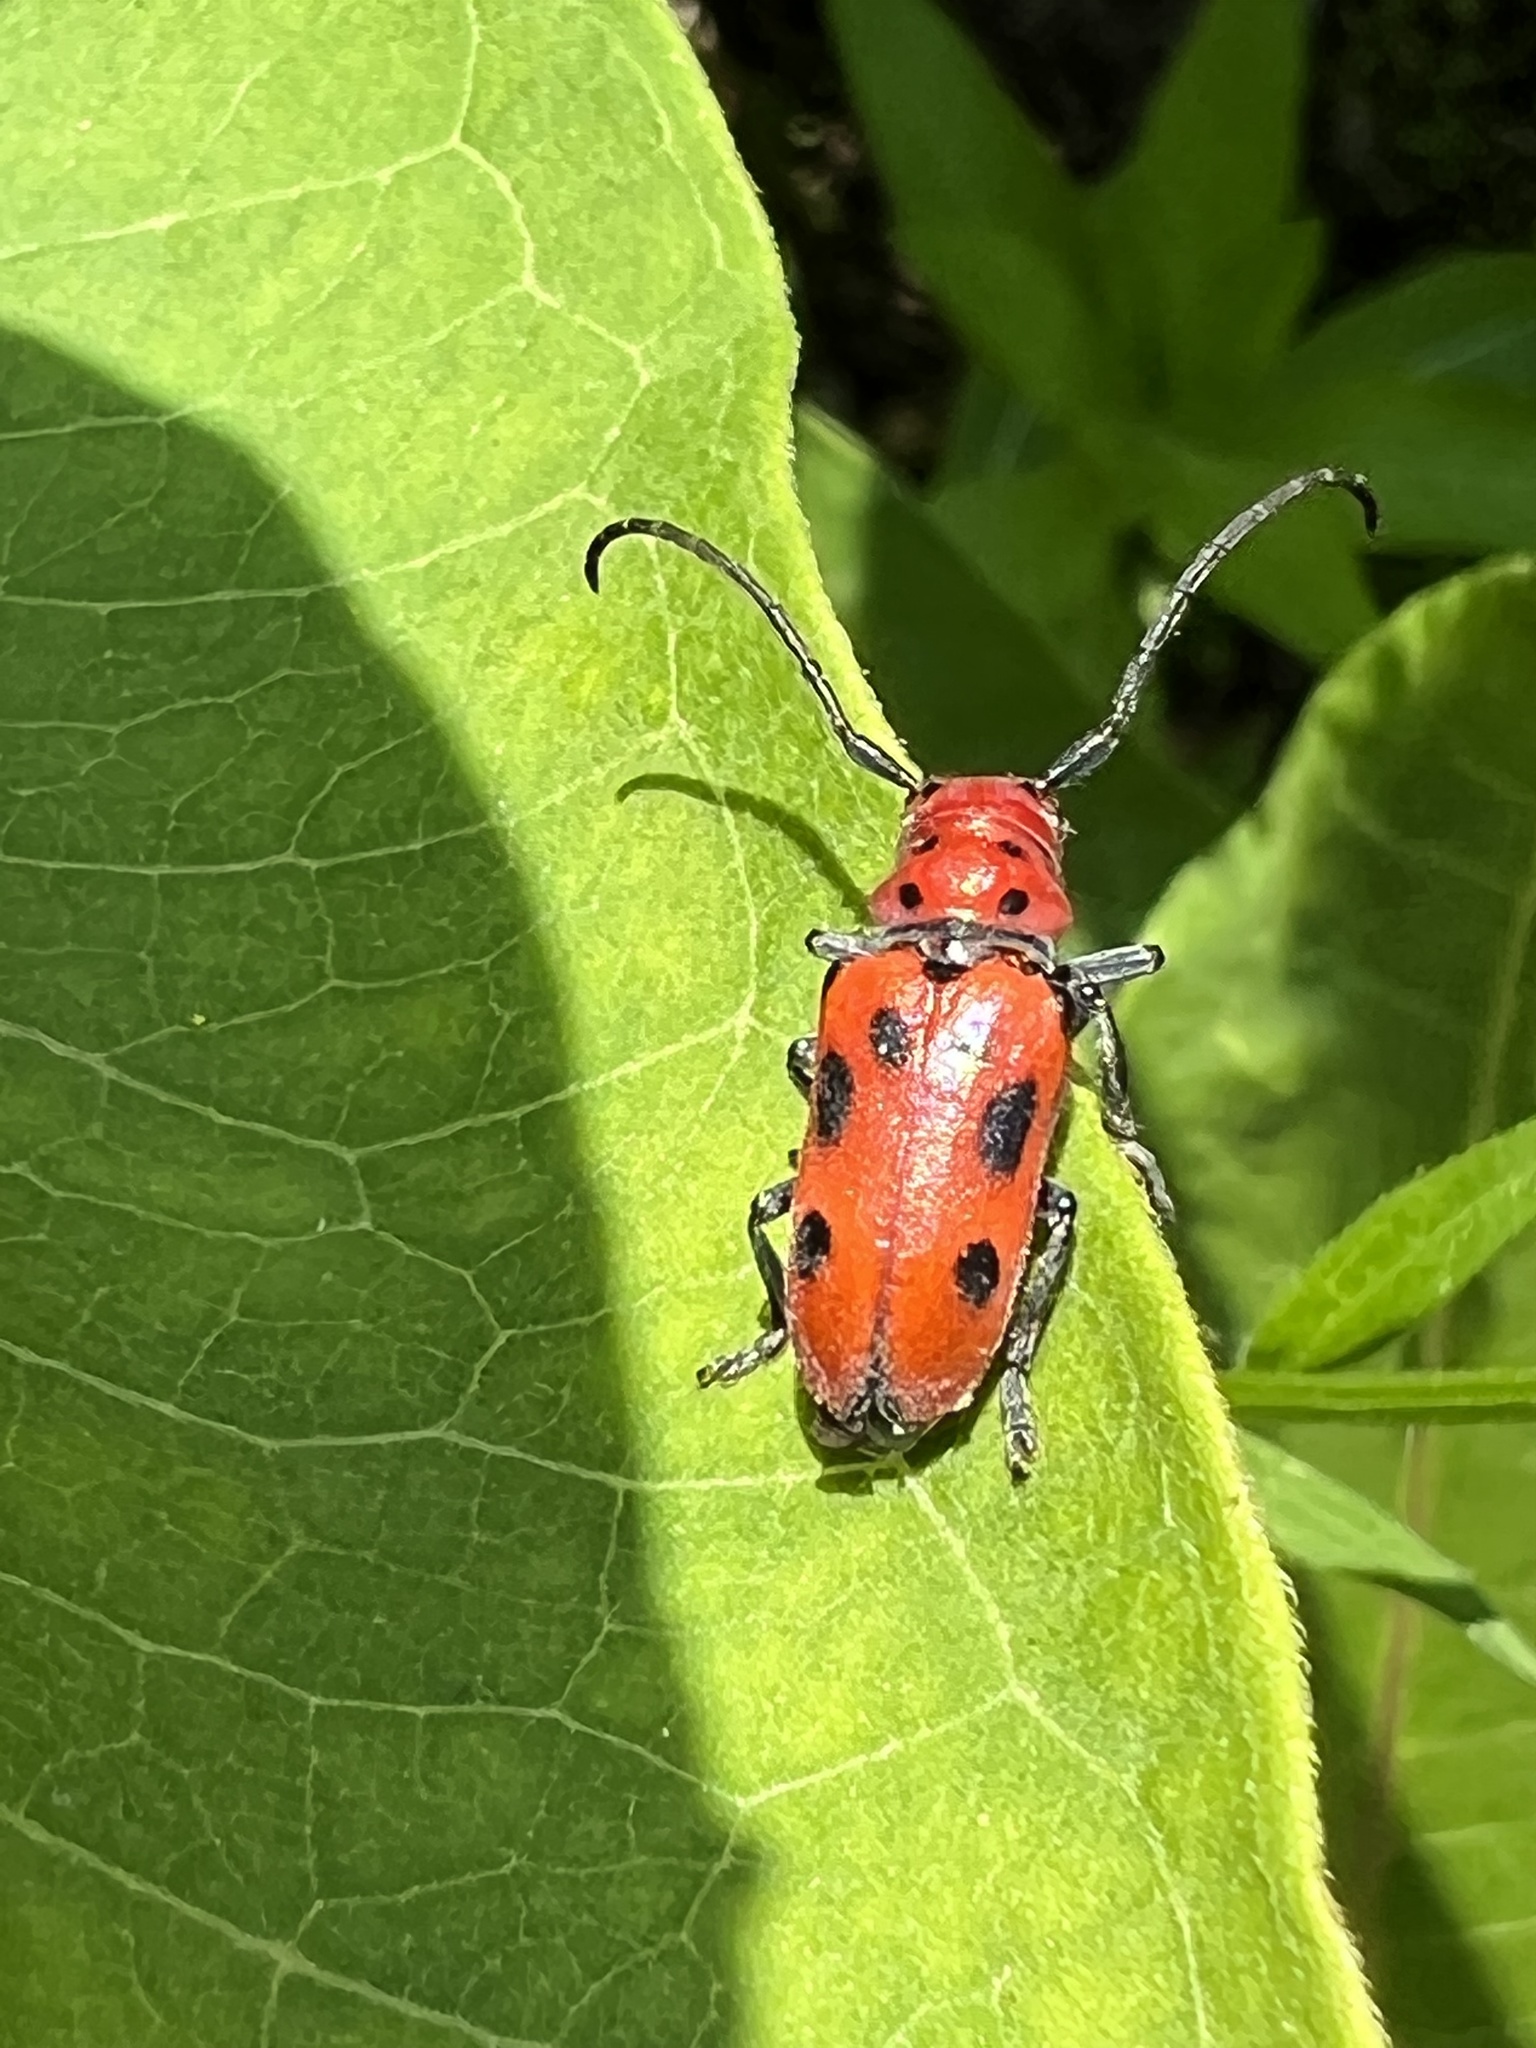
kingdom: Animalia
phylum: Arthropoda
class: Insecta
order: Coleoptera
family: Cerambycidae
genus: Tetraopes
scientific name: Tetraopes tetrophthalmus
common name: Red milkweed beetle
